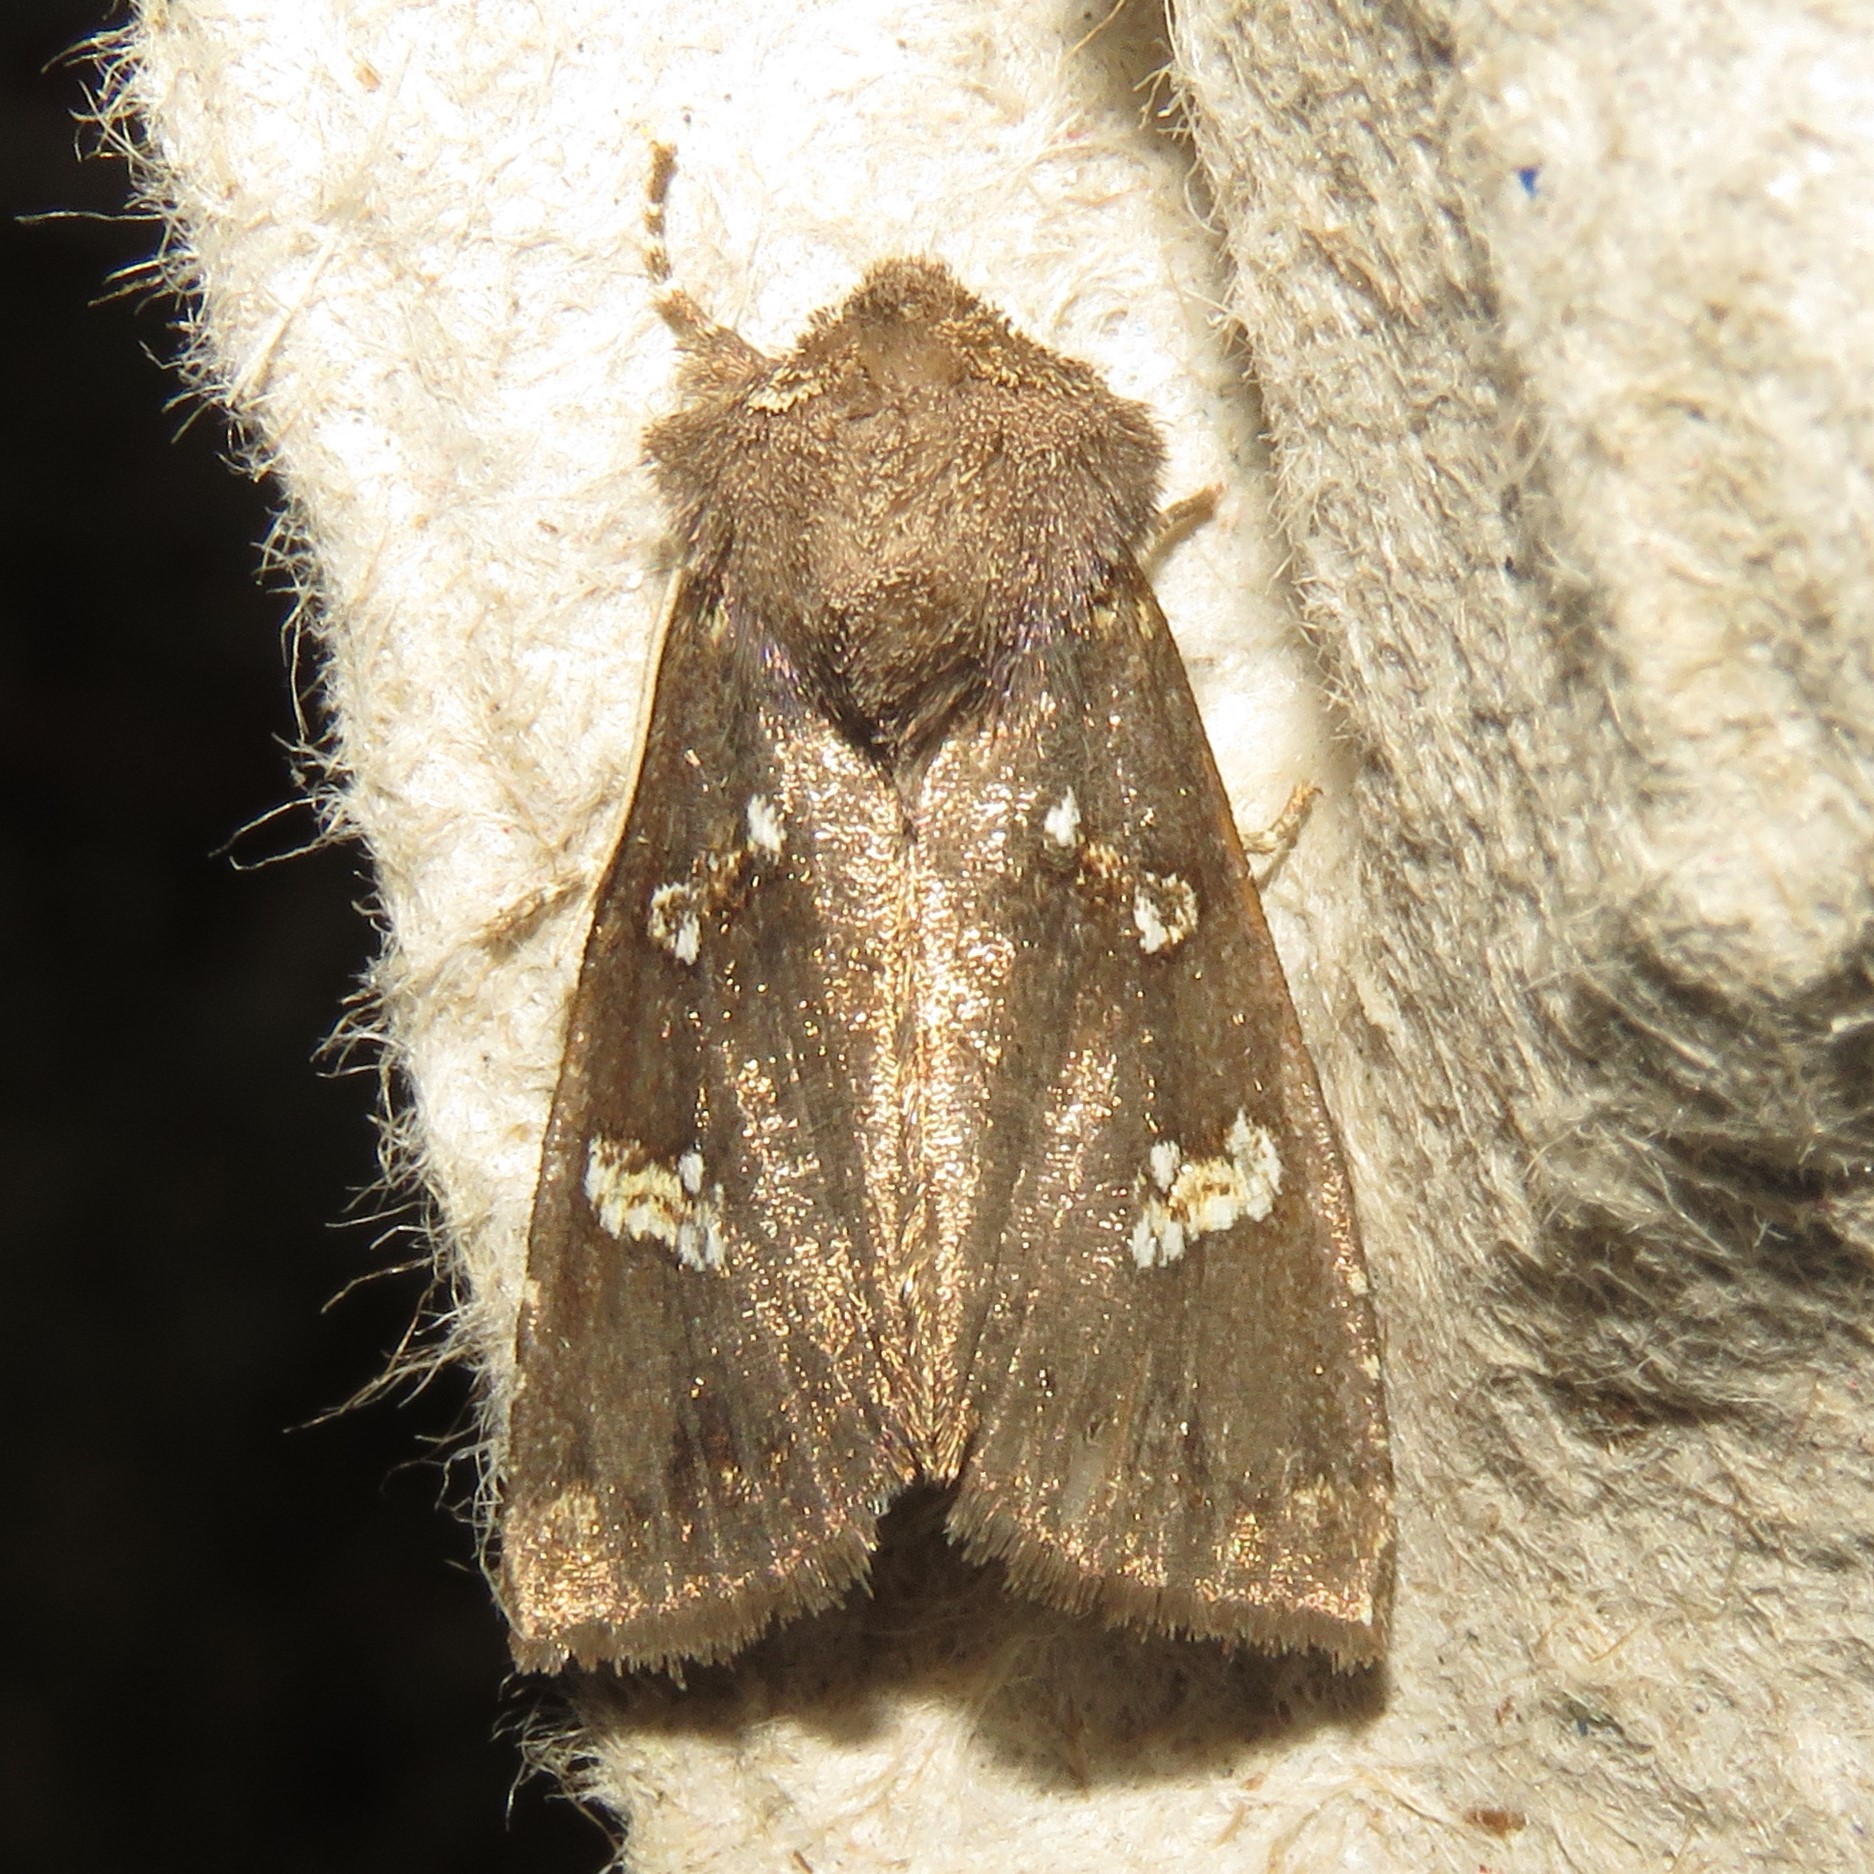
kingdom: Animalia
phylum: Arthropoda
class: Insecta
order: Lepidoptera
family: Noctuidae
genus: Papaipema
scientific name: Papaipema unimoda
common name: Meadow rue borer moth
